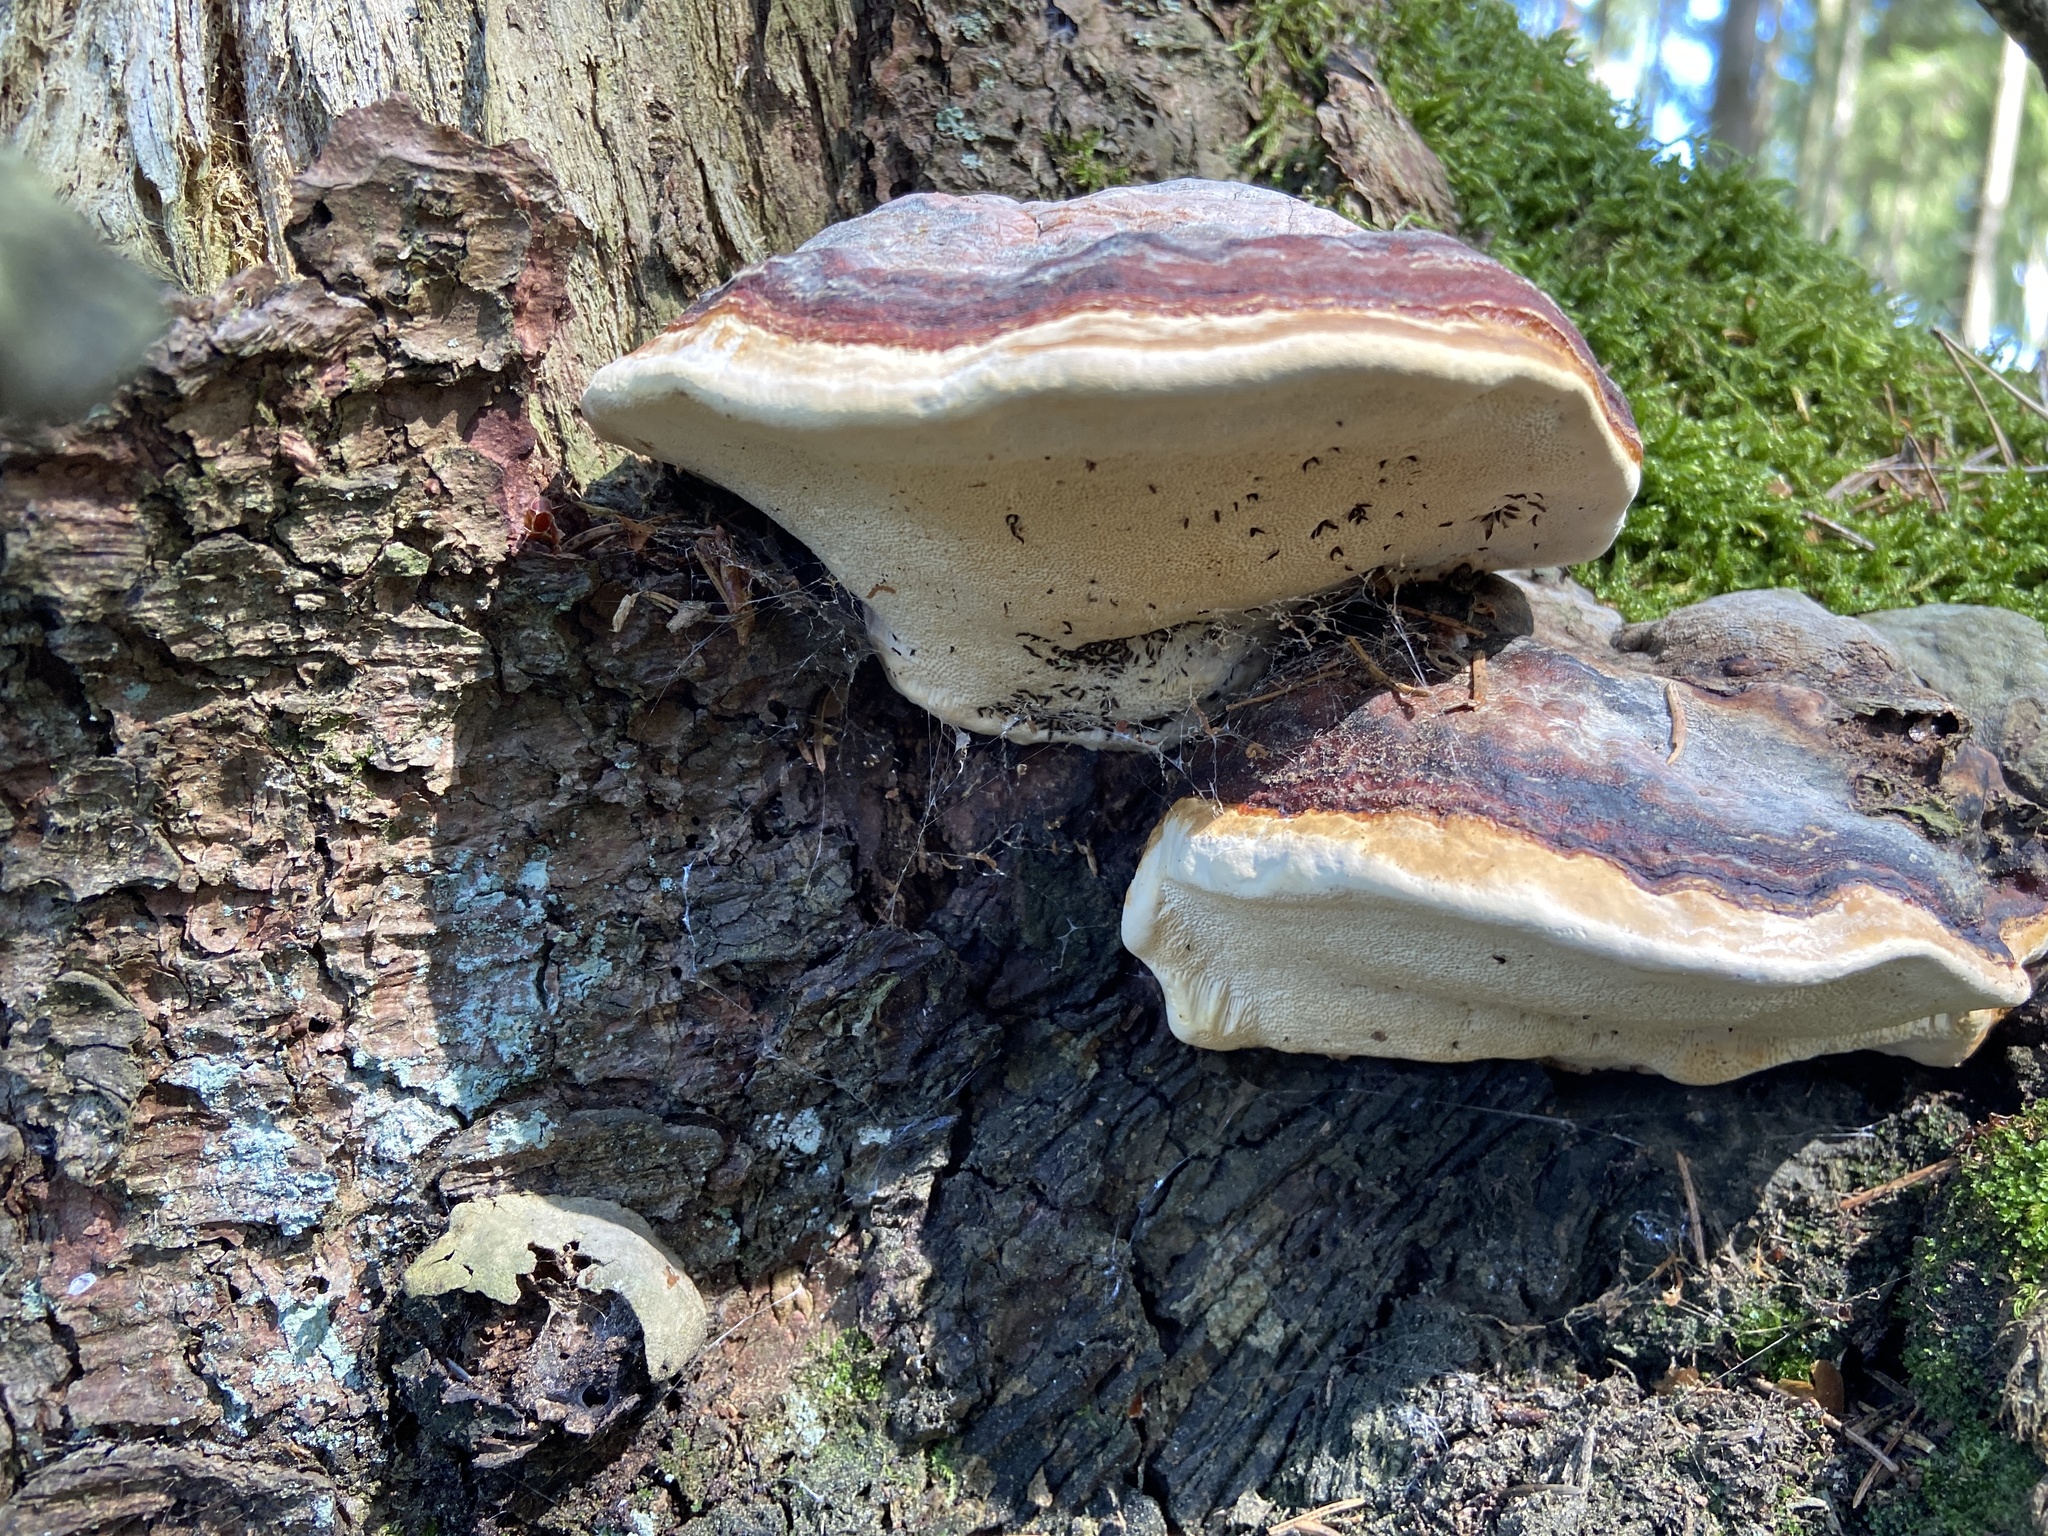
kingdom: Fungi
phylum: Basidiomycota
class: Agaricomycetes
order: Polyporales
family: Fomitopsidaceae
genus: Fomitopsis
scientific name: Fomitopsis pinicola
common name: Red-belted bracket
